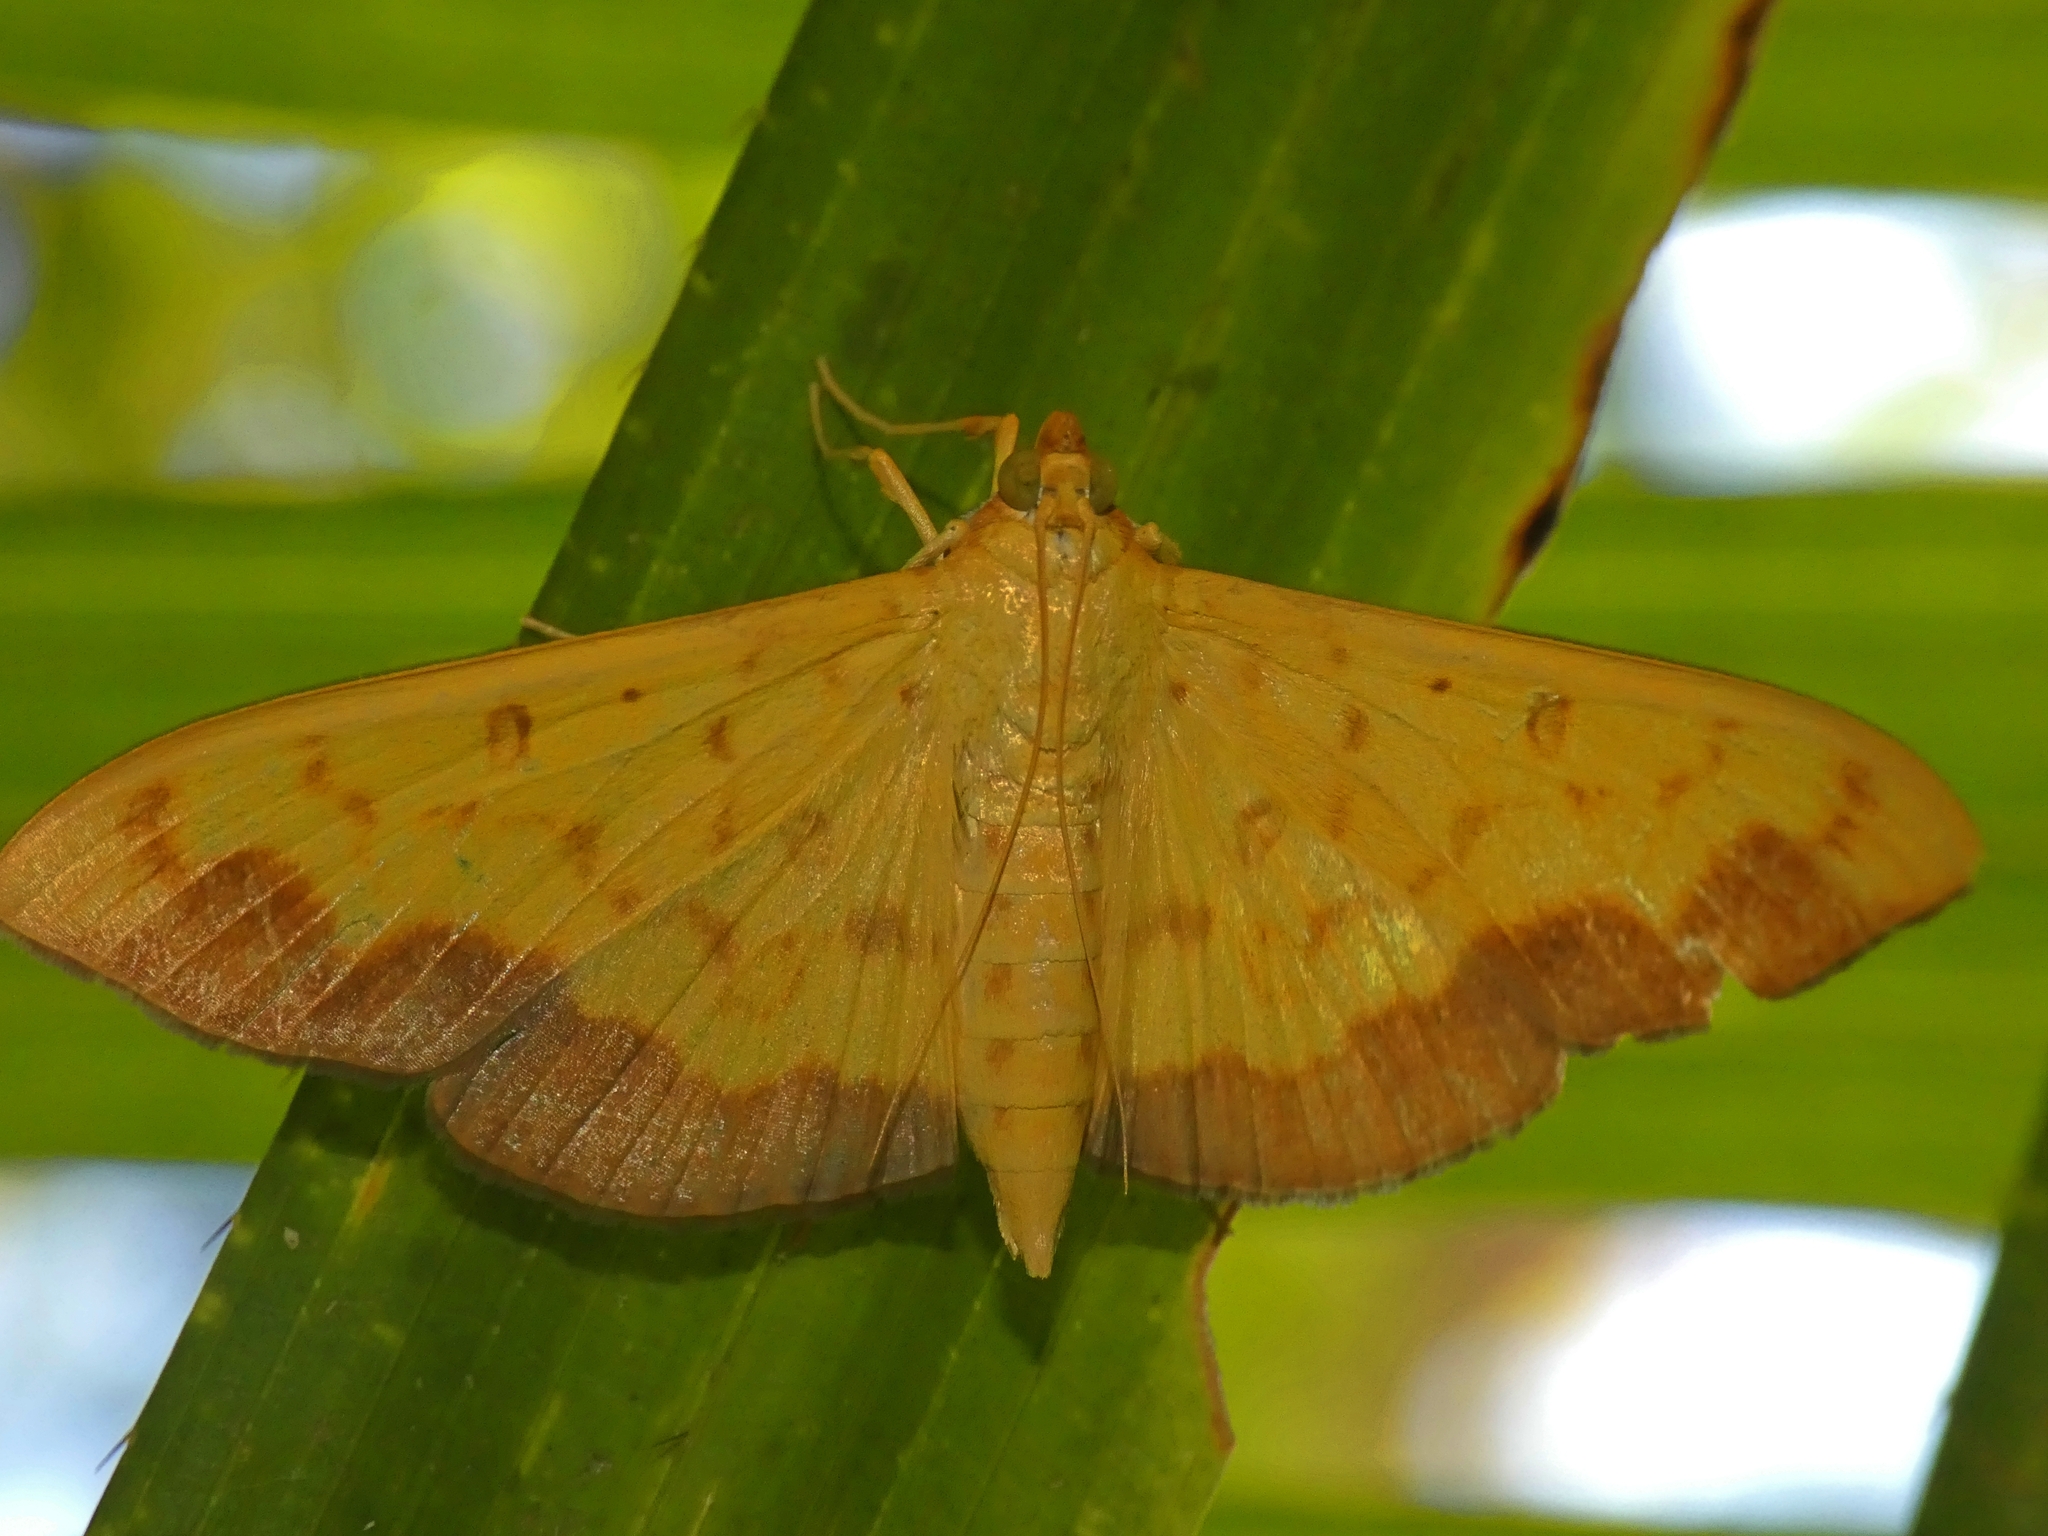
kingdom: Animalia
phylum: Arthropoda
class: Insecta
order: Lepidoptera
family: Crambidae
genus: Botyodes
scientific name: Botyodes asialis
